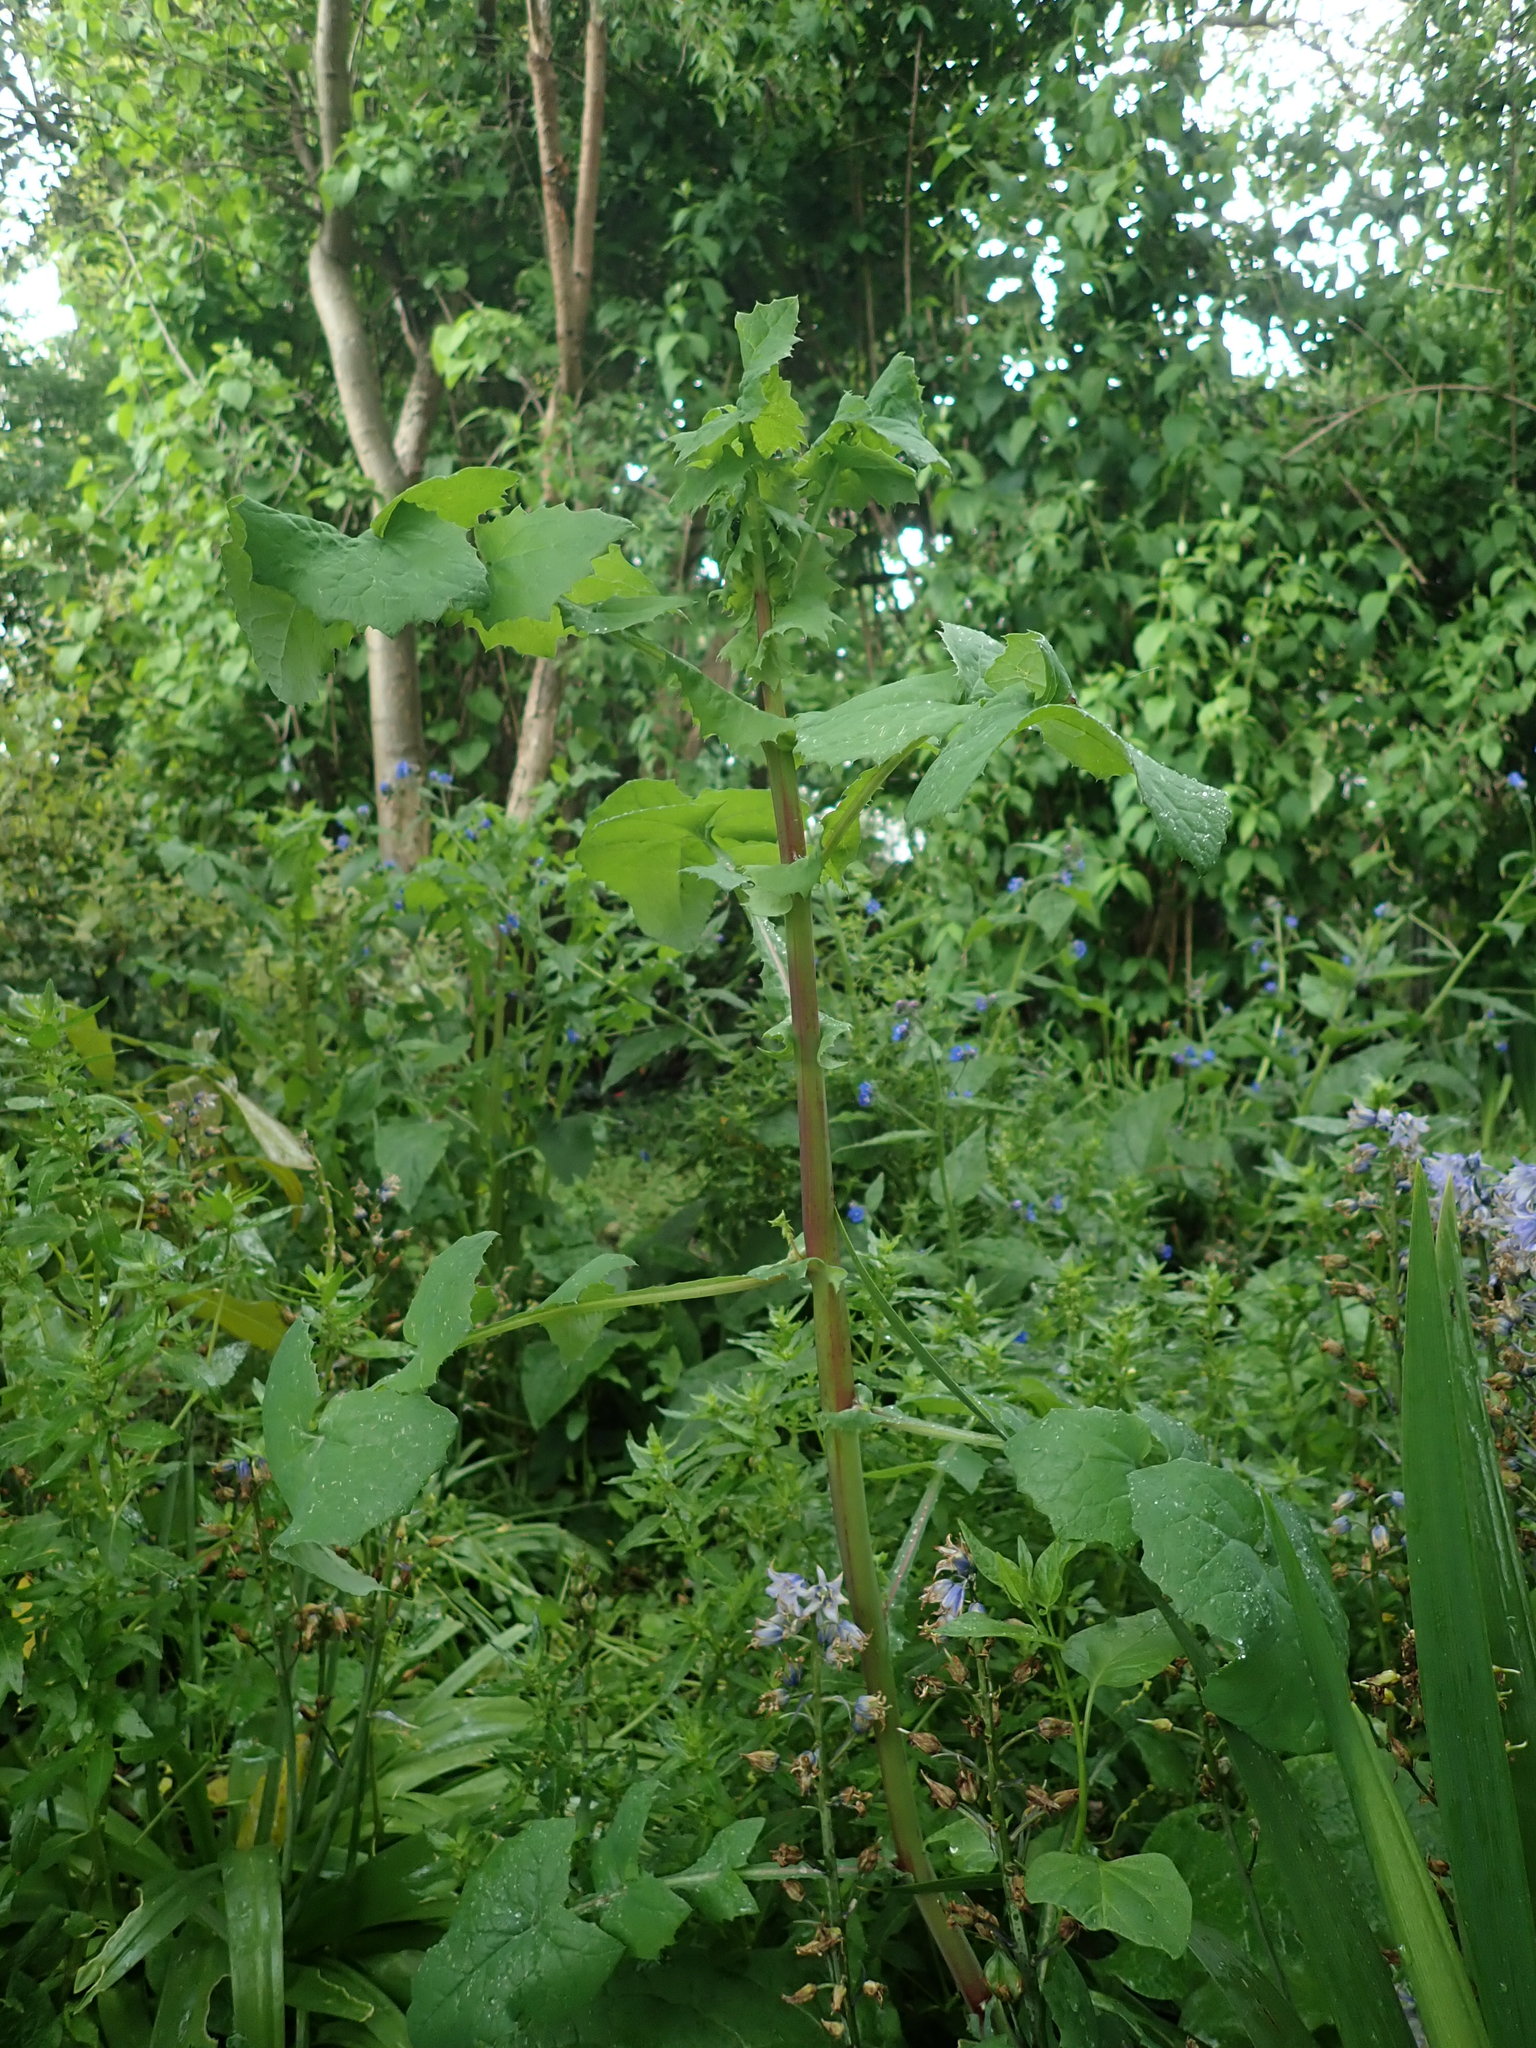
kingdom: Plantae
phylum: Tracheophyta
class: Magnoliopsida
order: Asterales
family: Asteraceae
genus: Sonchus
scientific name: Sonchus oleraceus
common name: Common sowthistle
